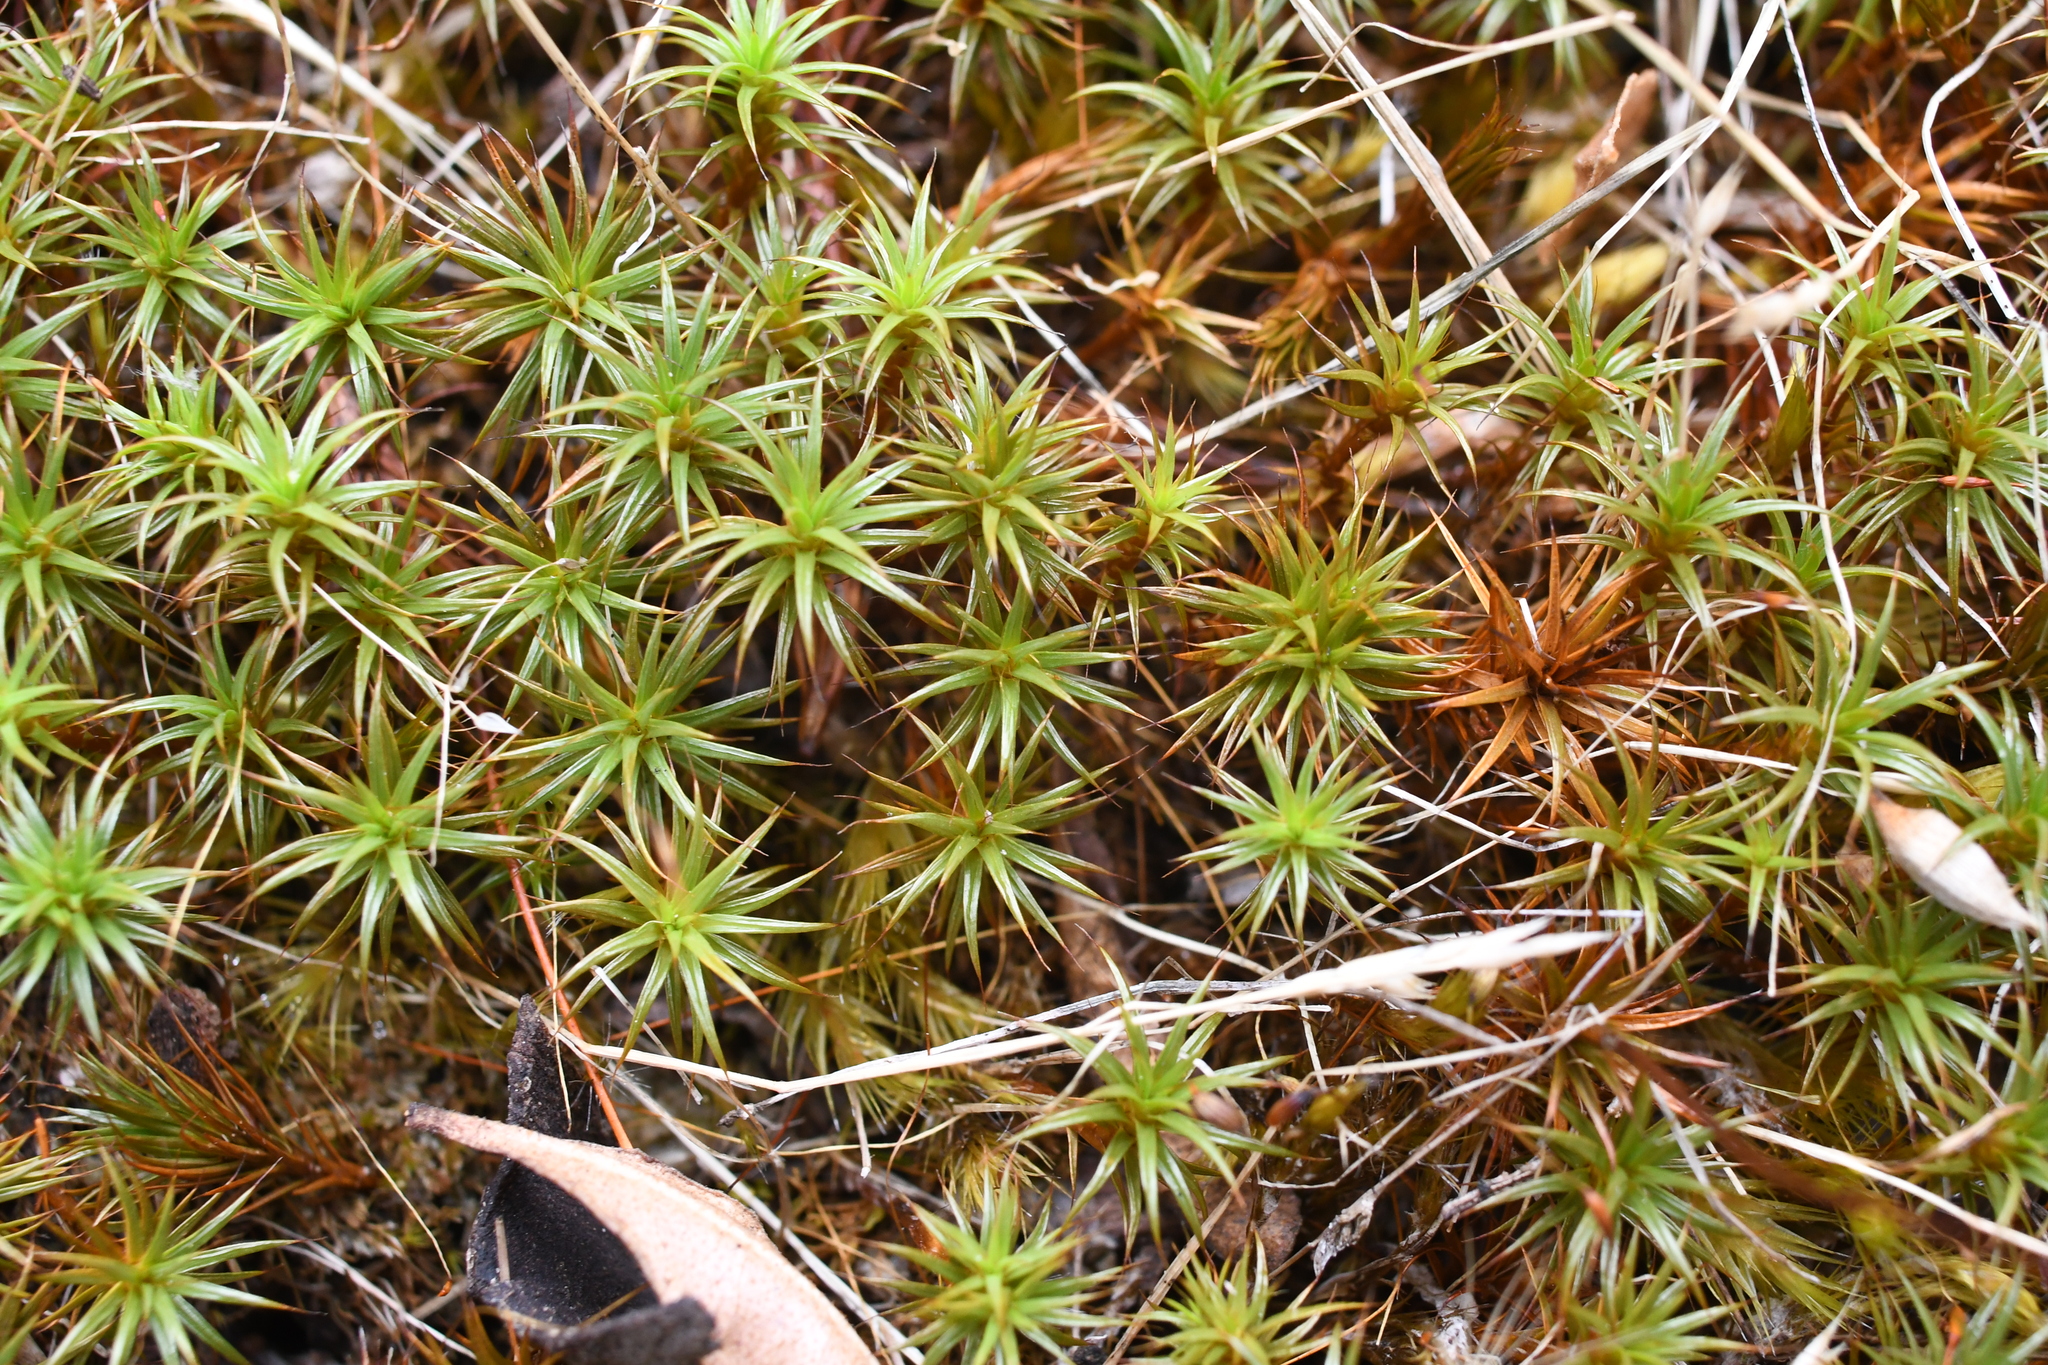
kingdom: Plantae
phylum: Bryophyta
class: Polytrichopsida
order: Polytrichales
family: Polytrichaceae
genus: Polytrichum
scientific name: Polytrichum juniperinum
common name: Juniper haircap moss
